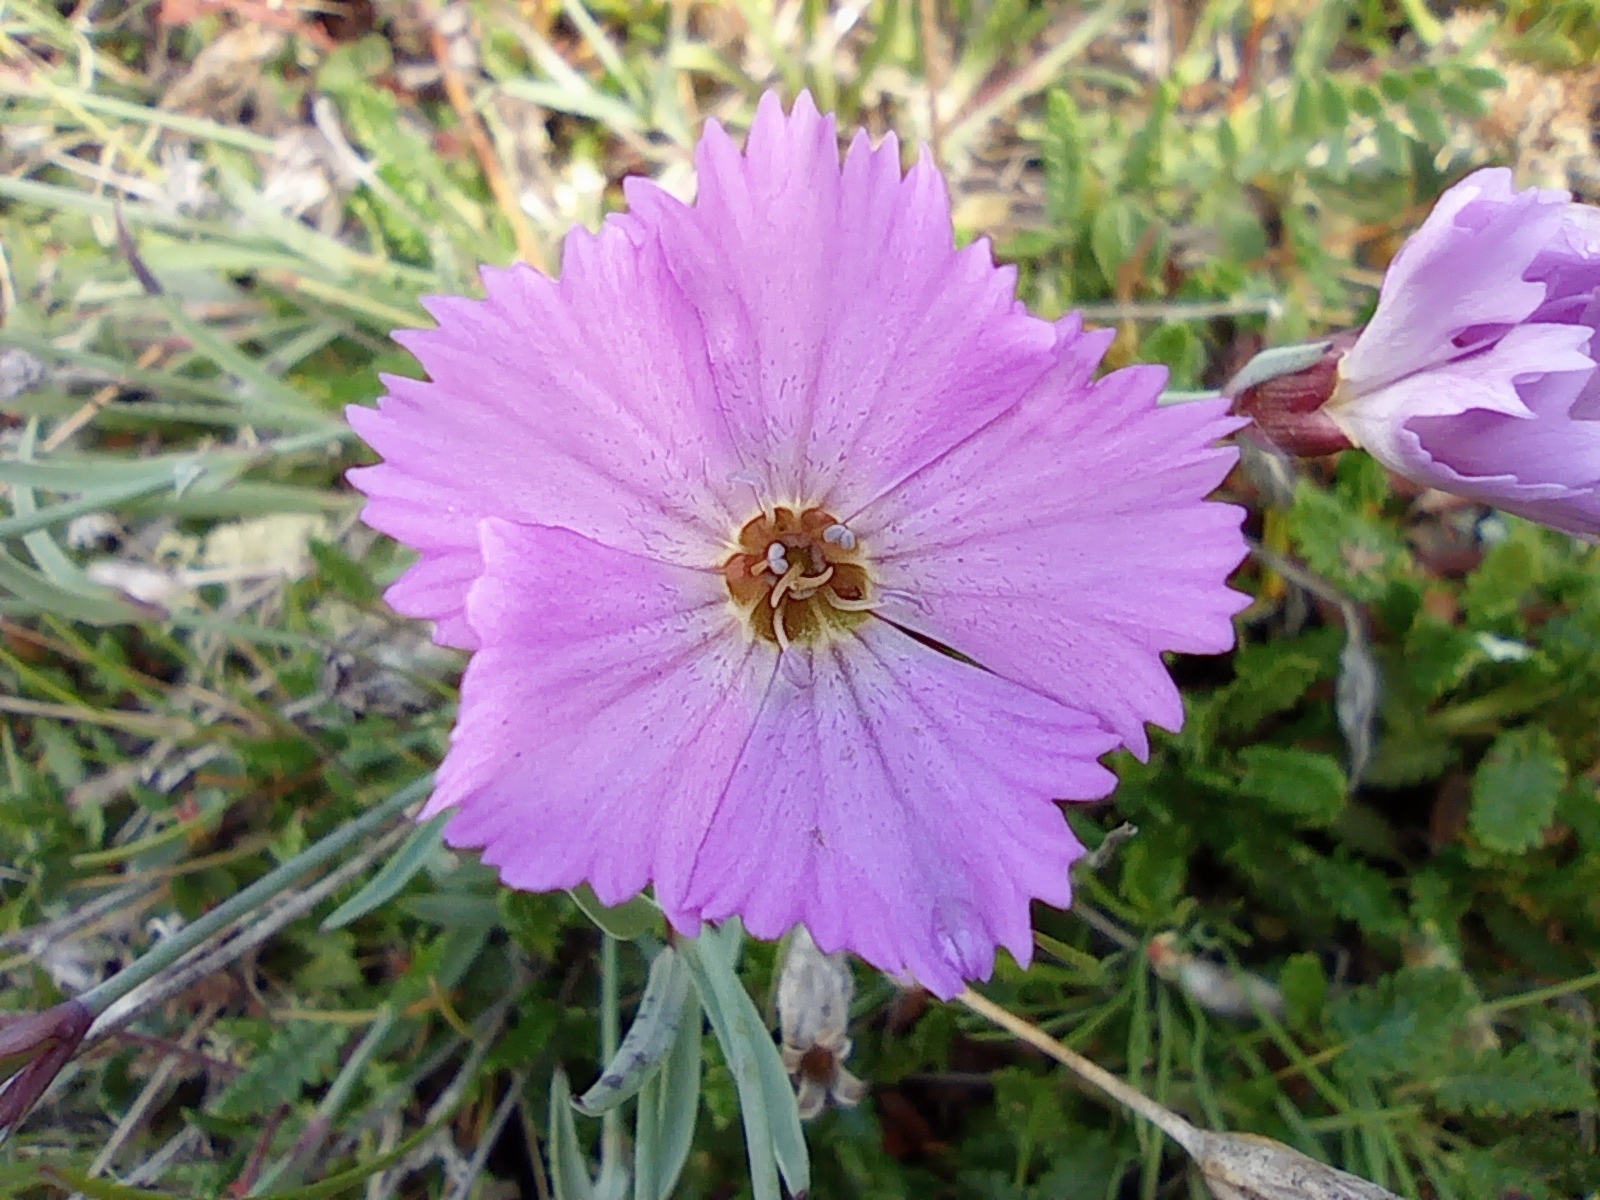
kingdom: Plantae
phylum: Tracheophyta
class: Magnoliopsida
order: Caryophyllales
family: Caryophyllaceae
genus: Dianthus
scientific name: Dianthus repens
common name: Northern pink
